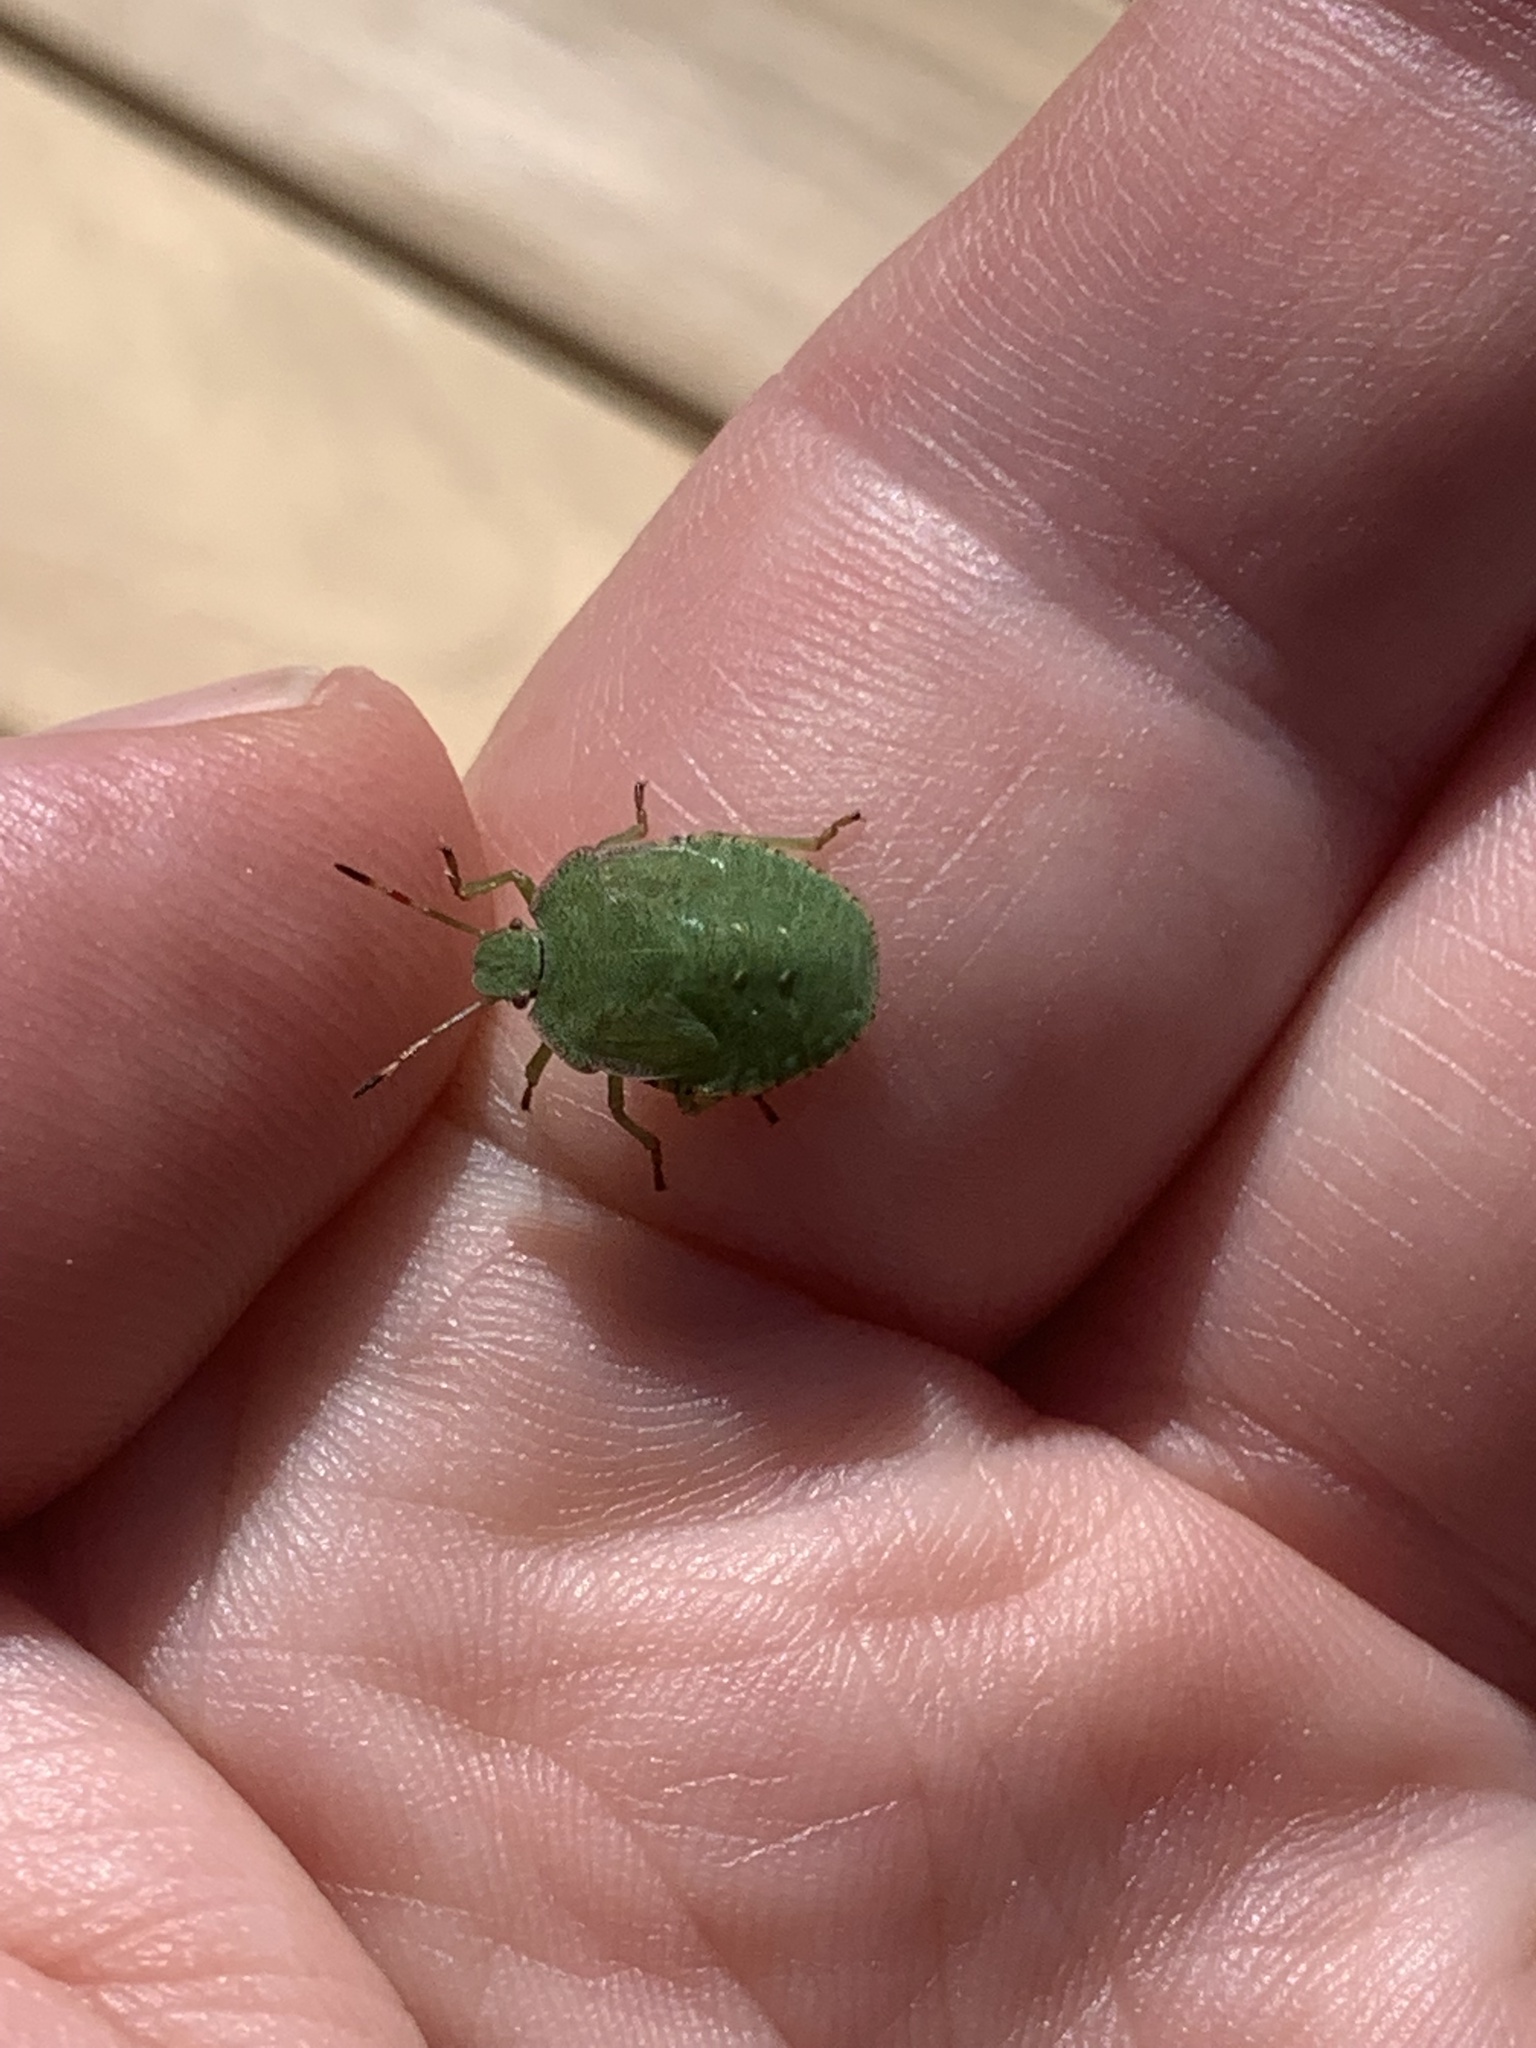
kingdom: Animalia
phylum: Arthropoda
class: Insecta
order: Hemiptera
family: Pentatomidae
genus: Palomena
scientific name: Palomena prasina
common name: Green shieldbug
